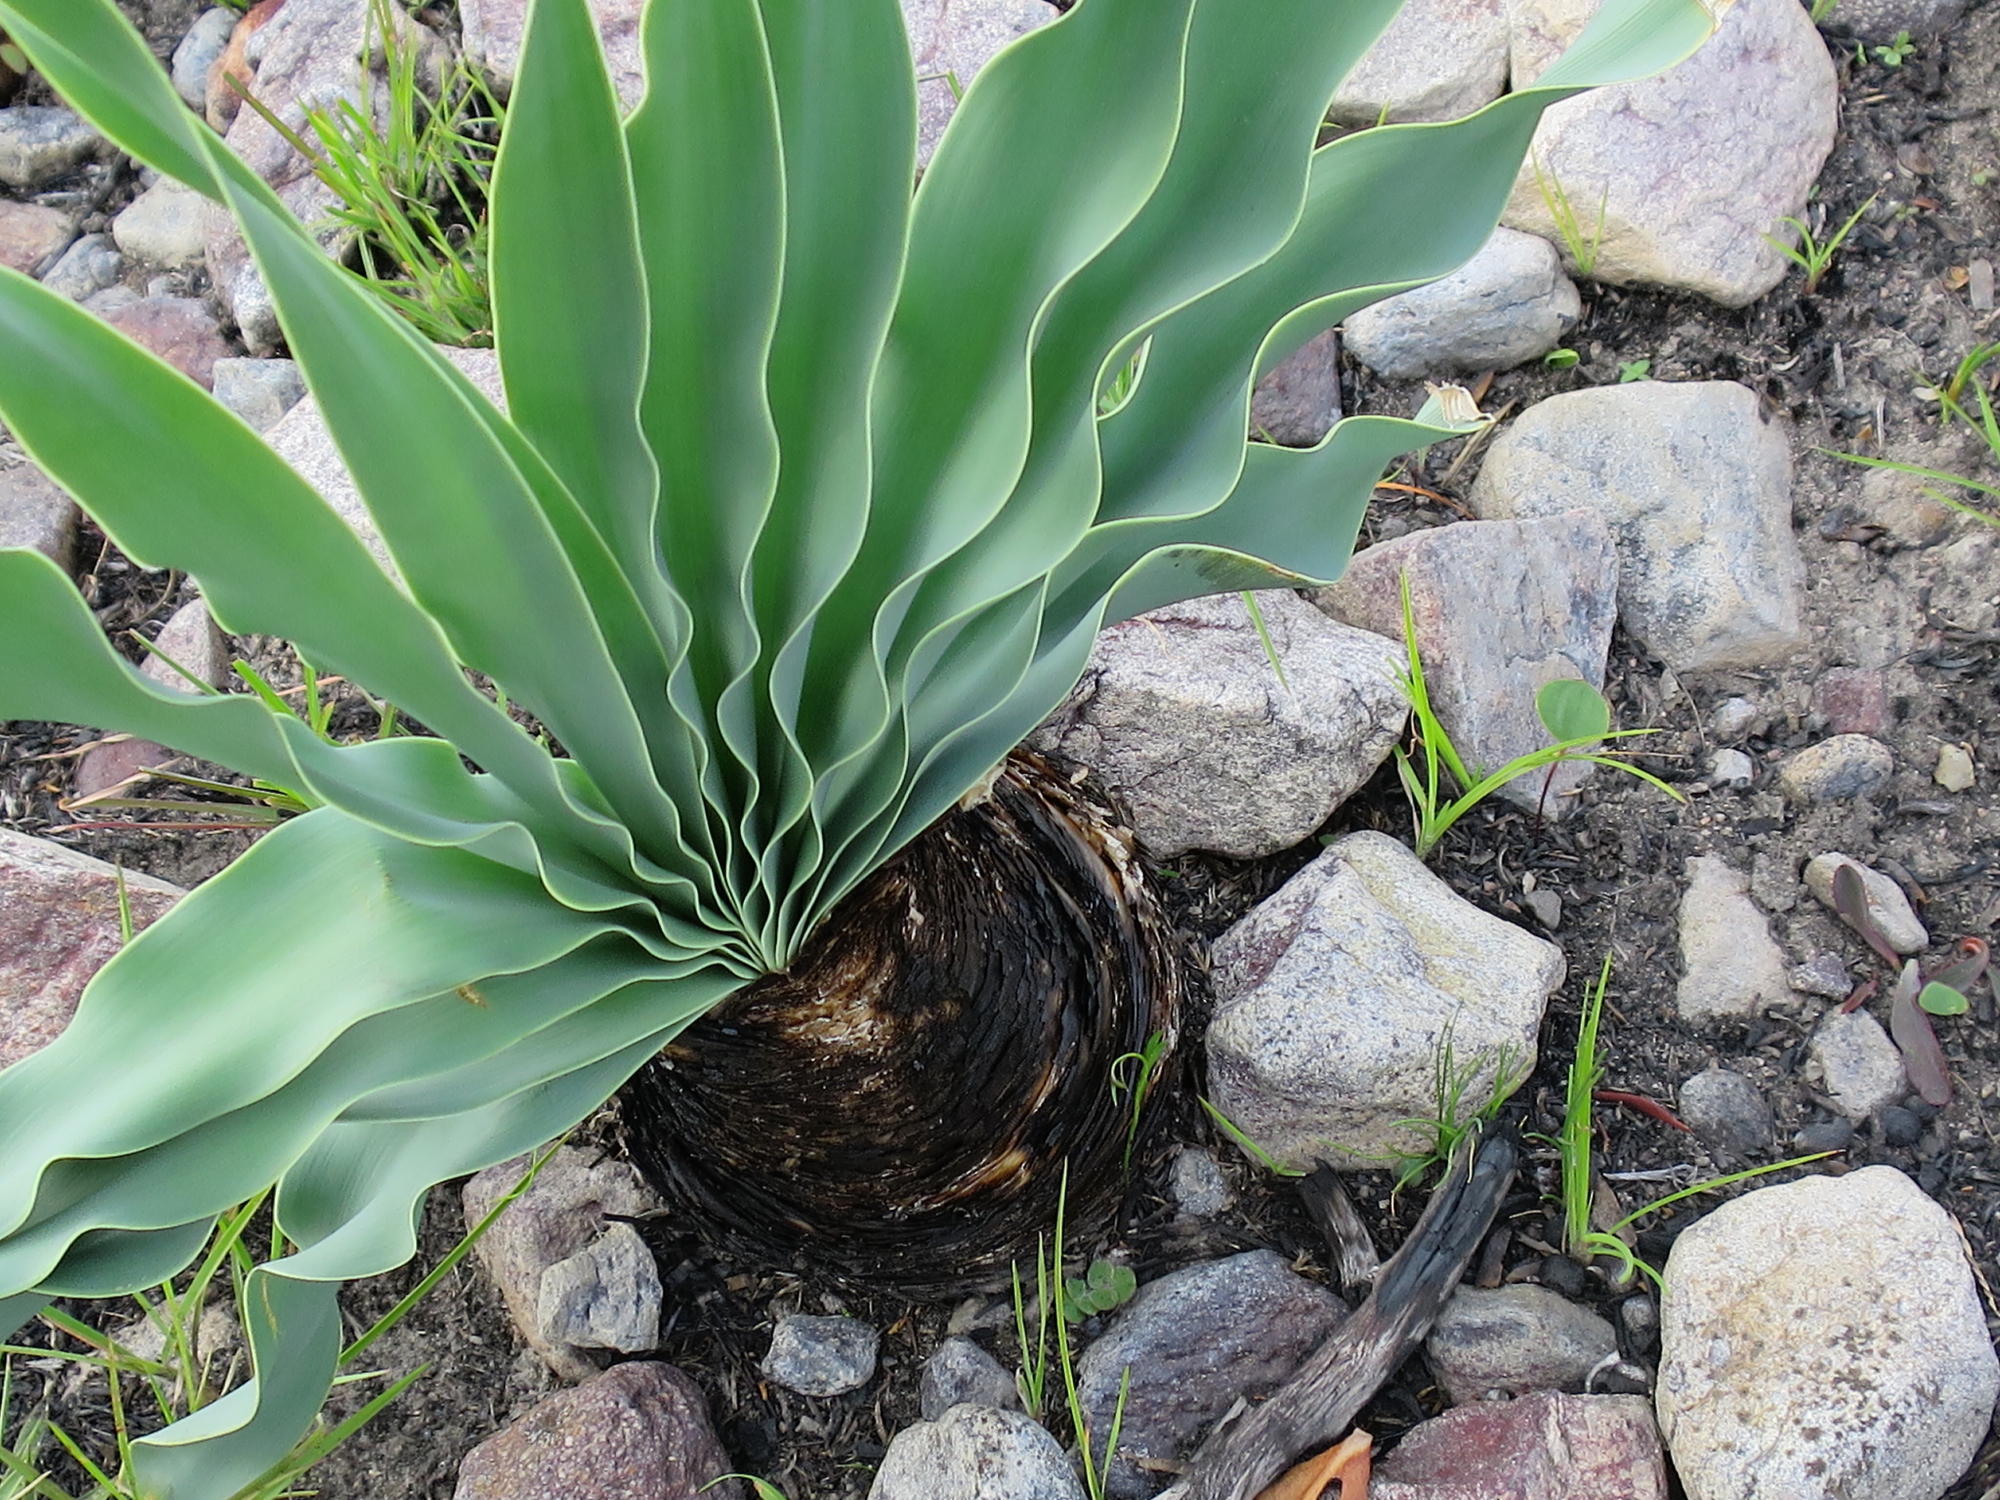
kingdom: Plantae
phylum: Tracheophyta
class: Liliopsida
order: Asparagales
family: Amaryllidaceae
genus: Boophone
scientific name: Boophone disticha
